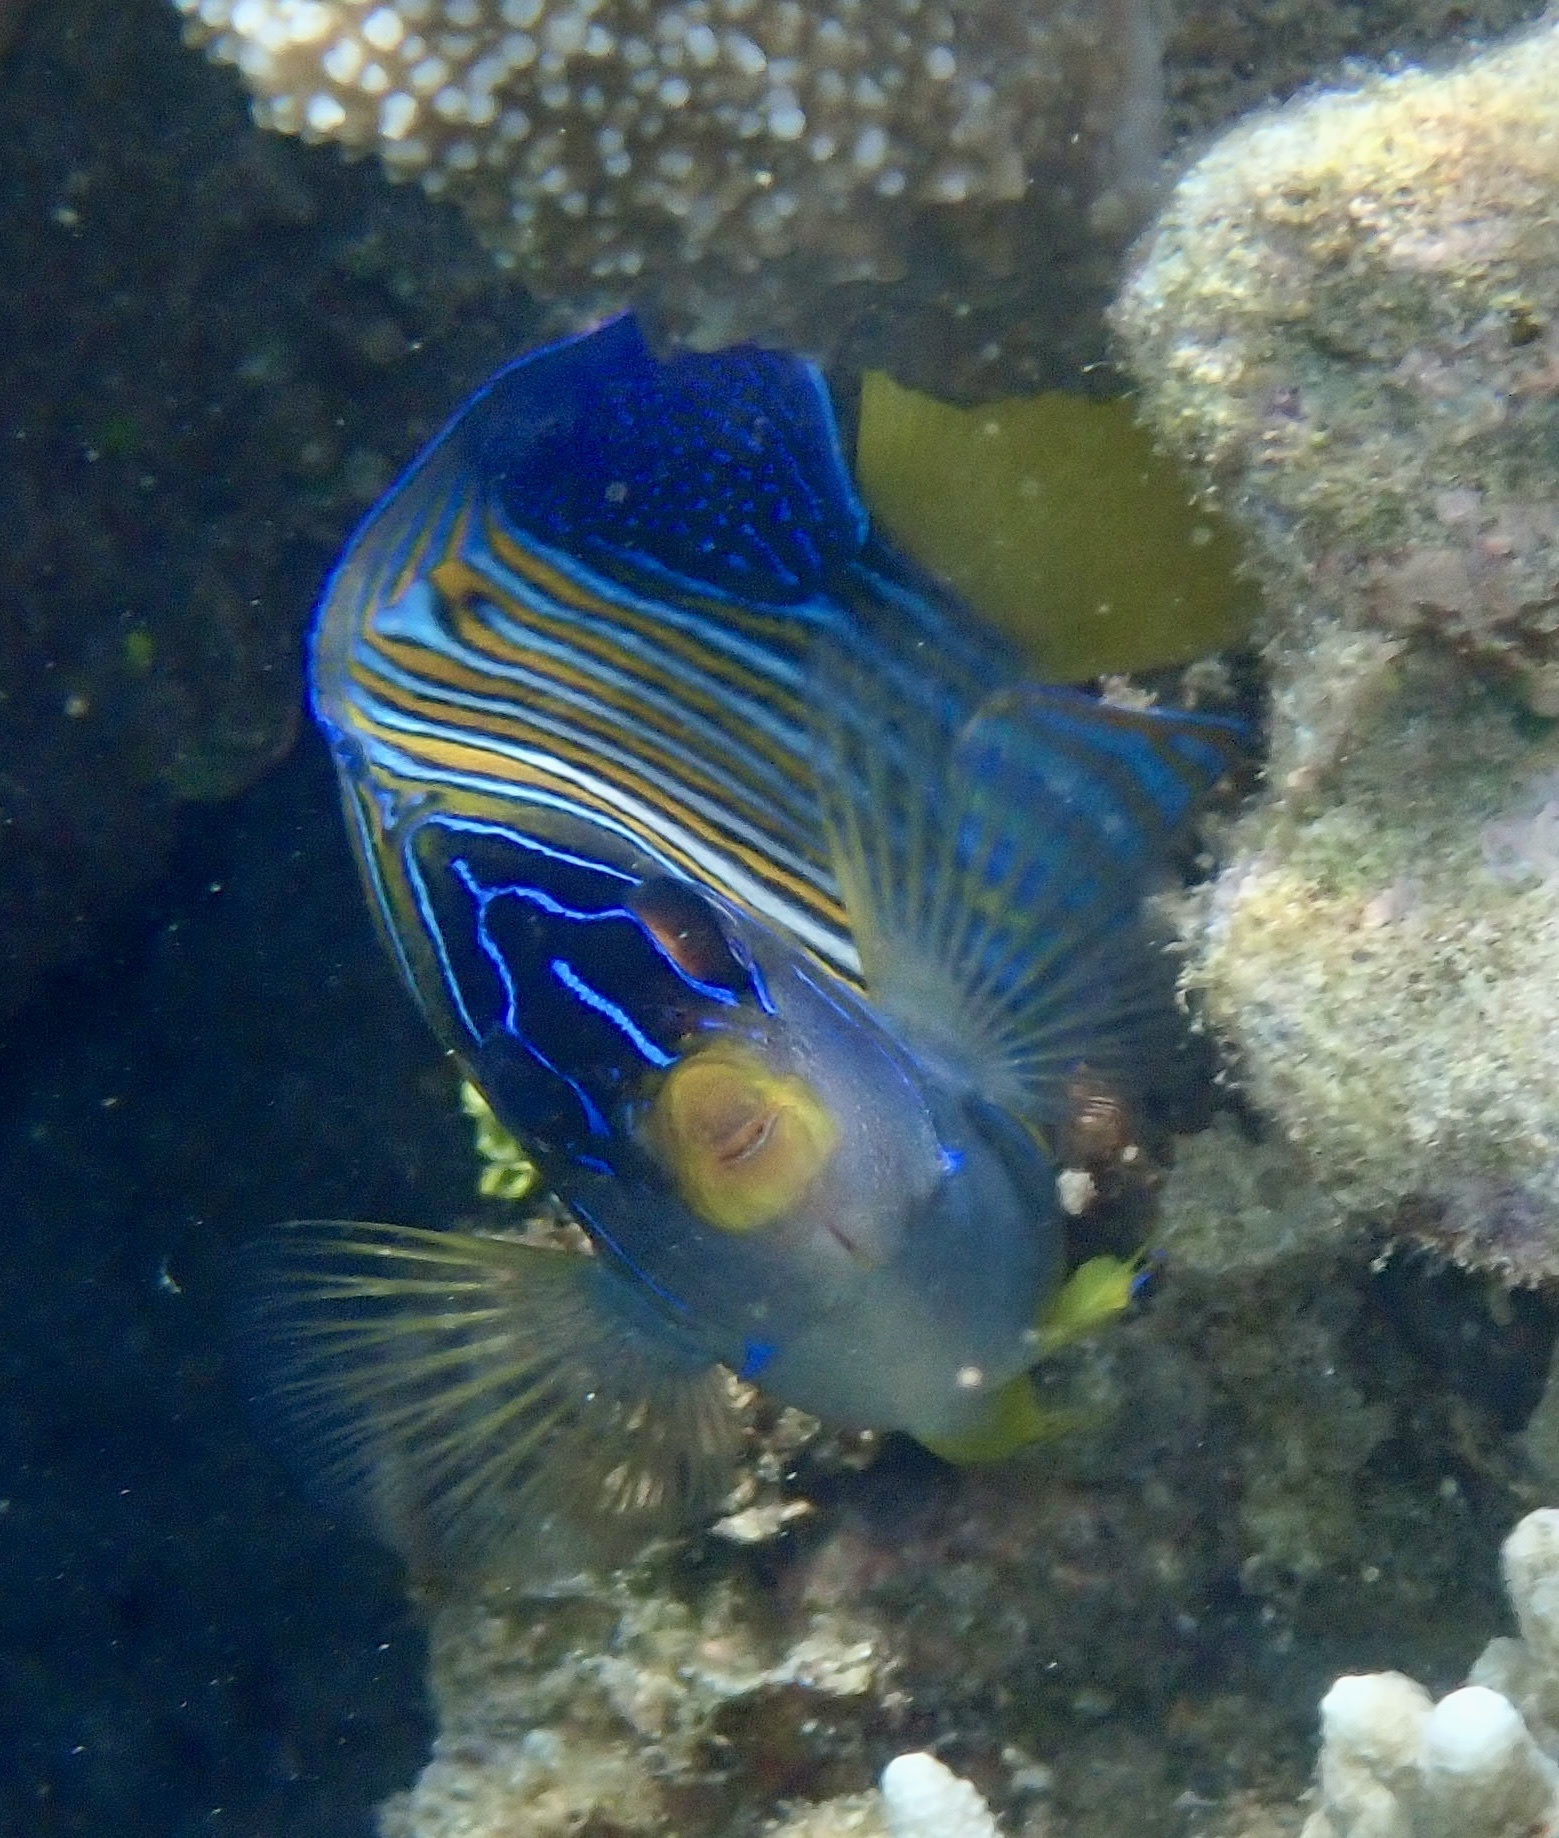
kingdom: Animalia
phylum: Chordata
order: Perciformes
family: Pomacanthidae
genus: Pygoplites
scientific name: Pygoplites diacanthus
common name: Regal angelfish
